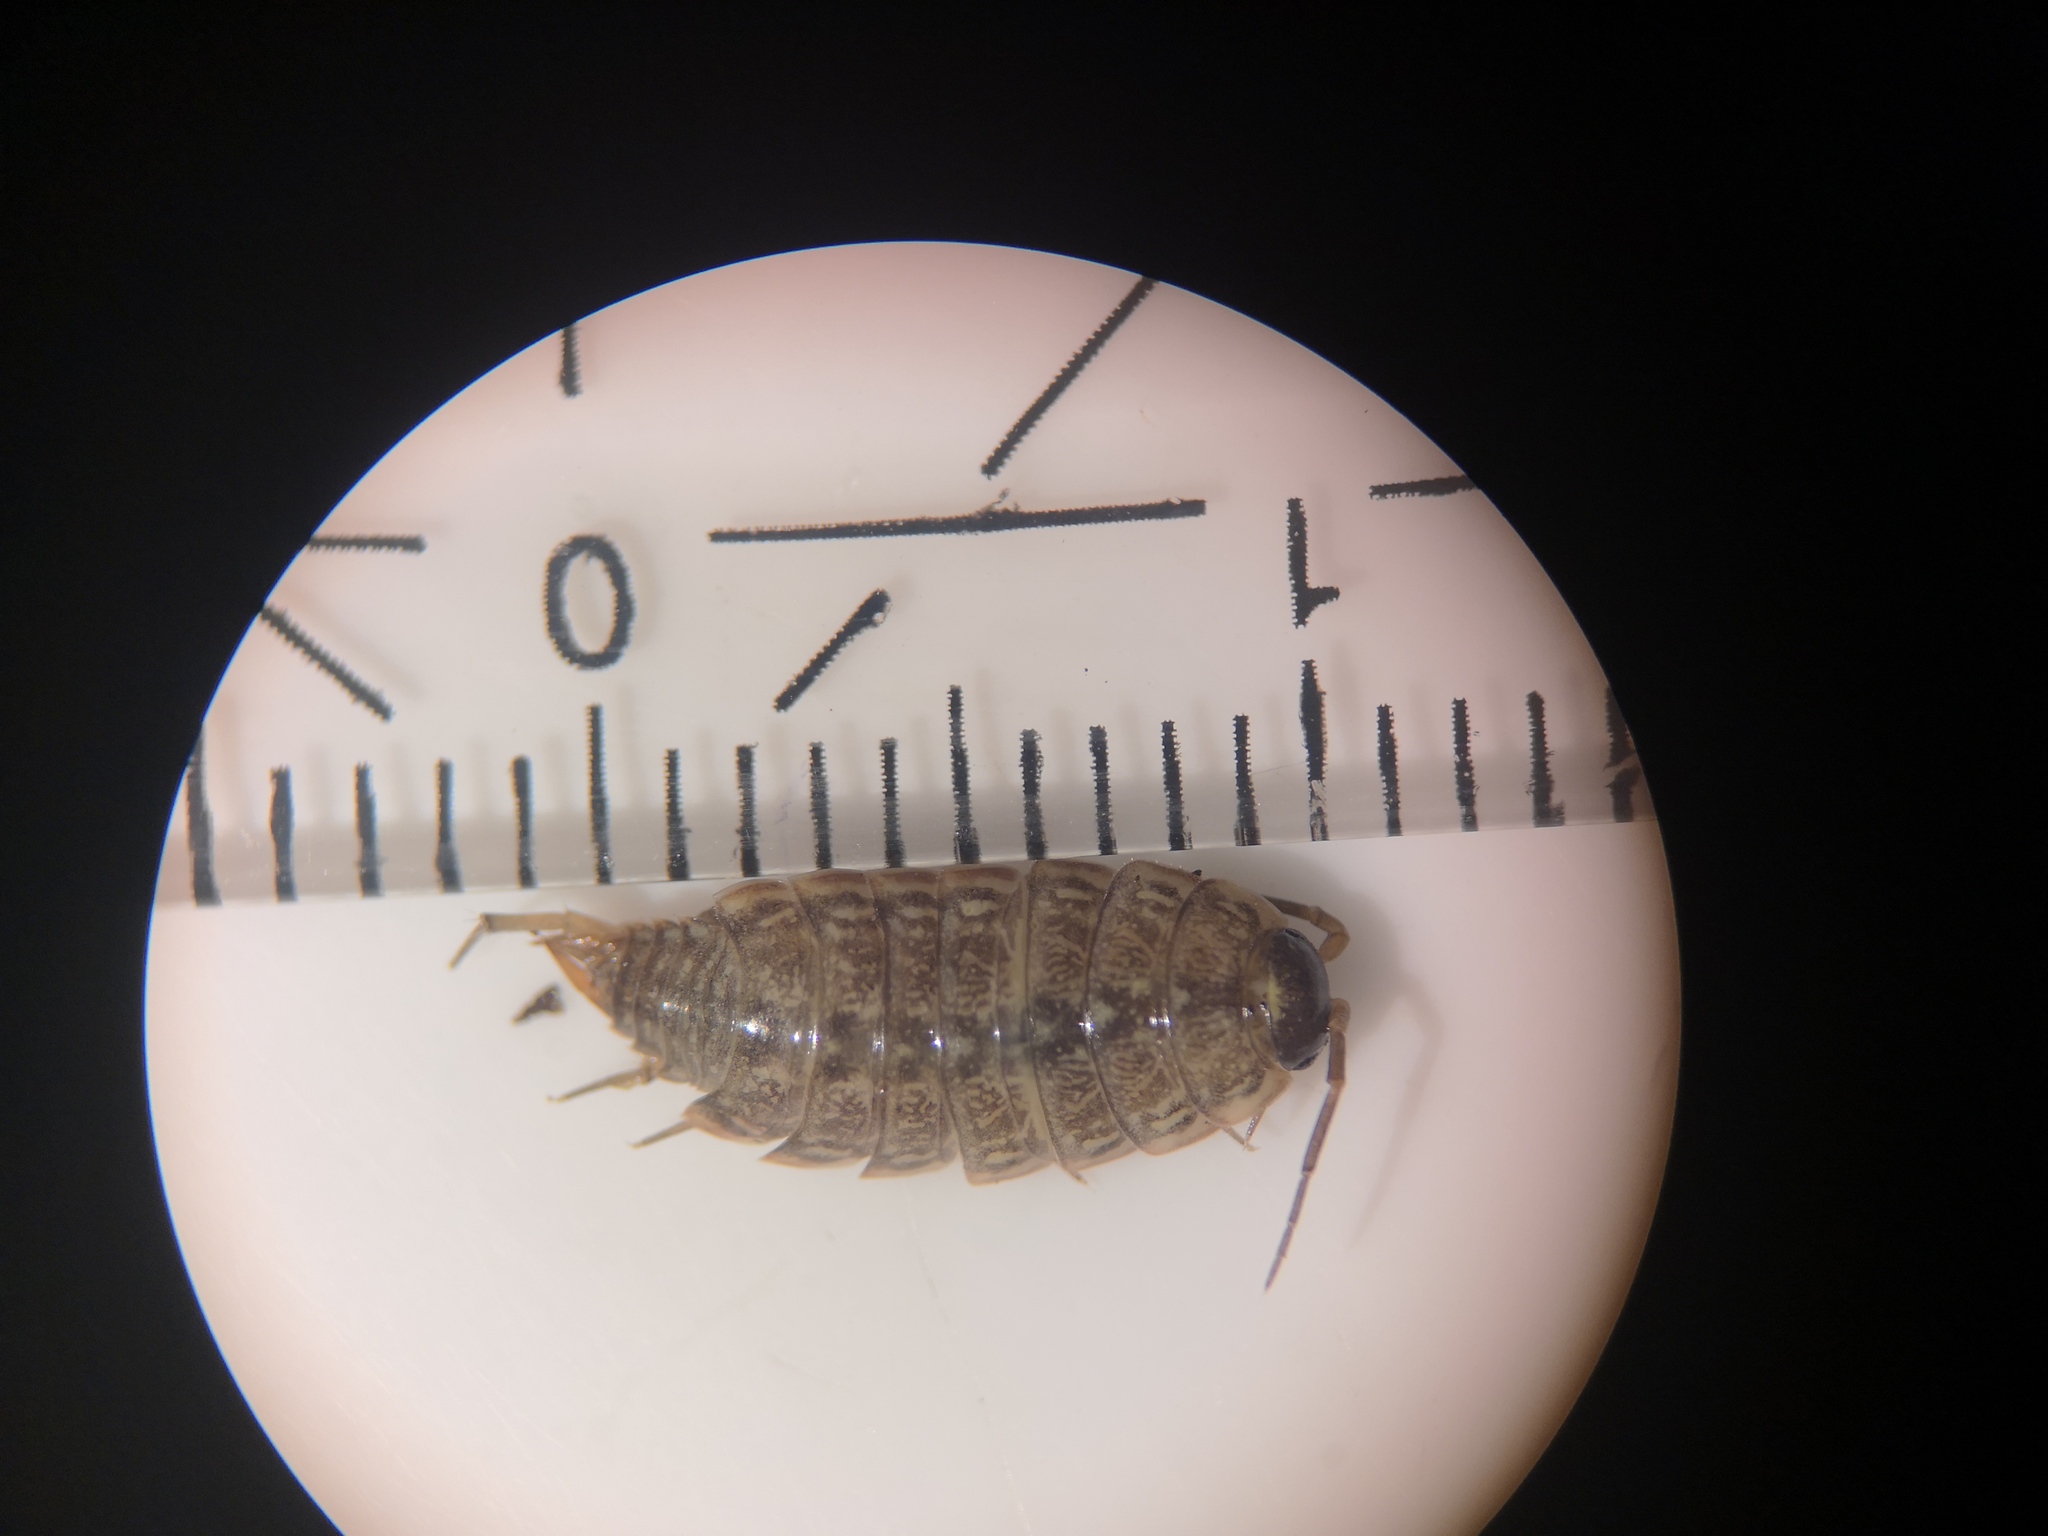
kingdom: Animalia
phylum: Arthropoda
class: Malacostraca
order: Isopoda
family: Philosciidae
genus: Philoscia
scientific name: Philoscia muscorum
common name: Common striped woodlouse
